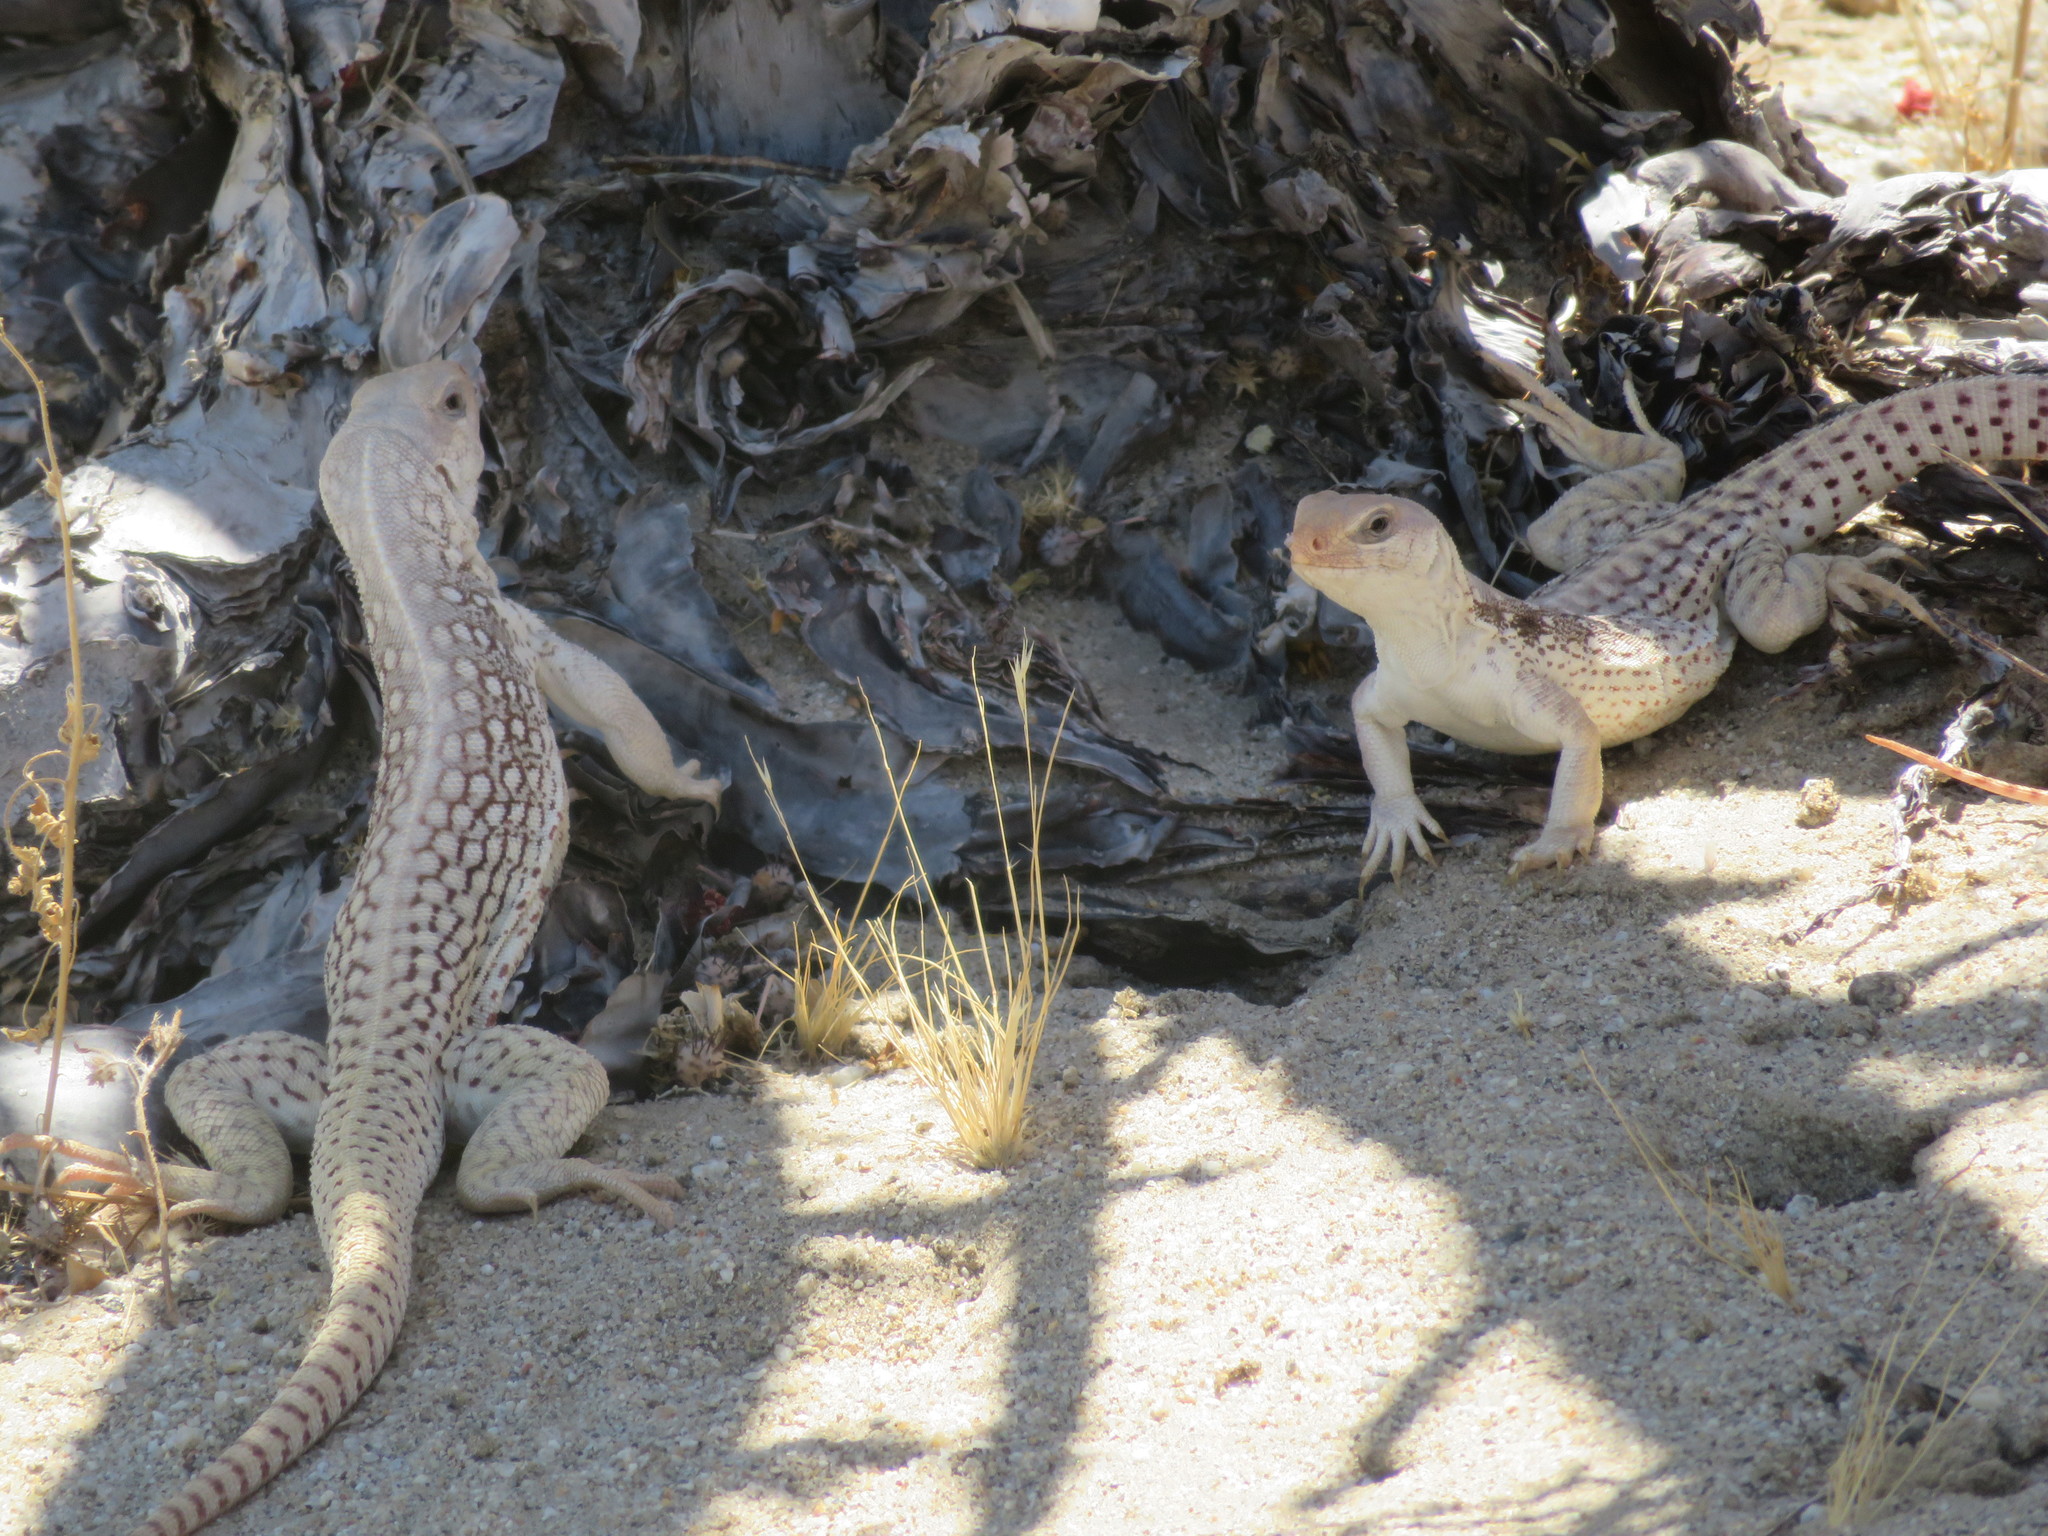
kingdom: Animalia
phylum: Chordata
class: Squamata
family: Iguanidae
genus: Dipsosaurus
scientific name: Dipsosaurus dorsalis
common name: Desert iguana
